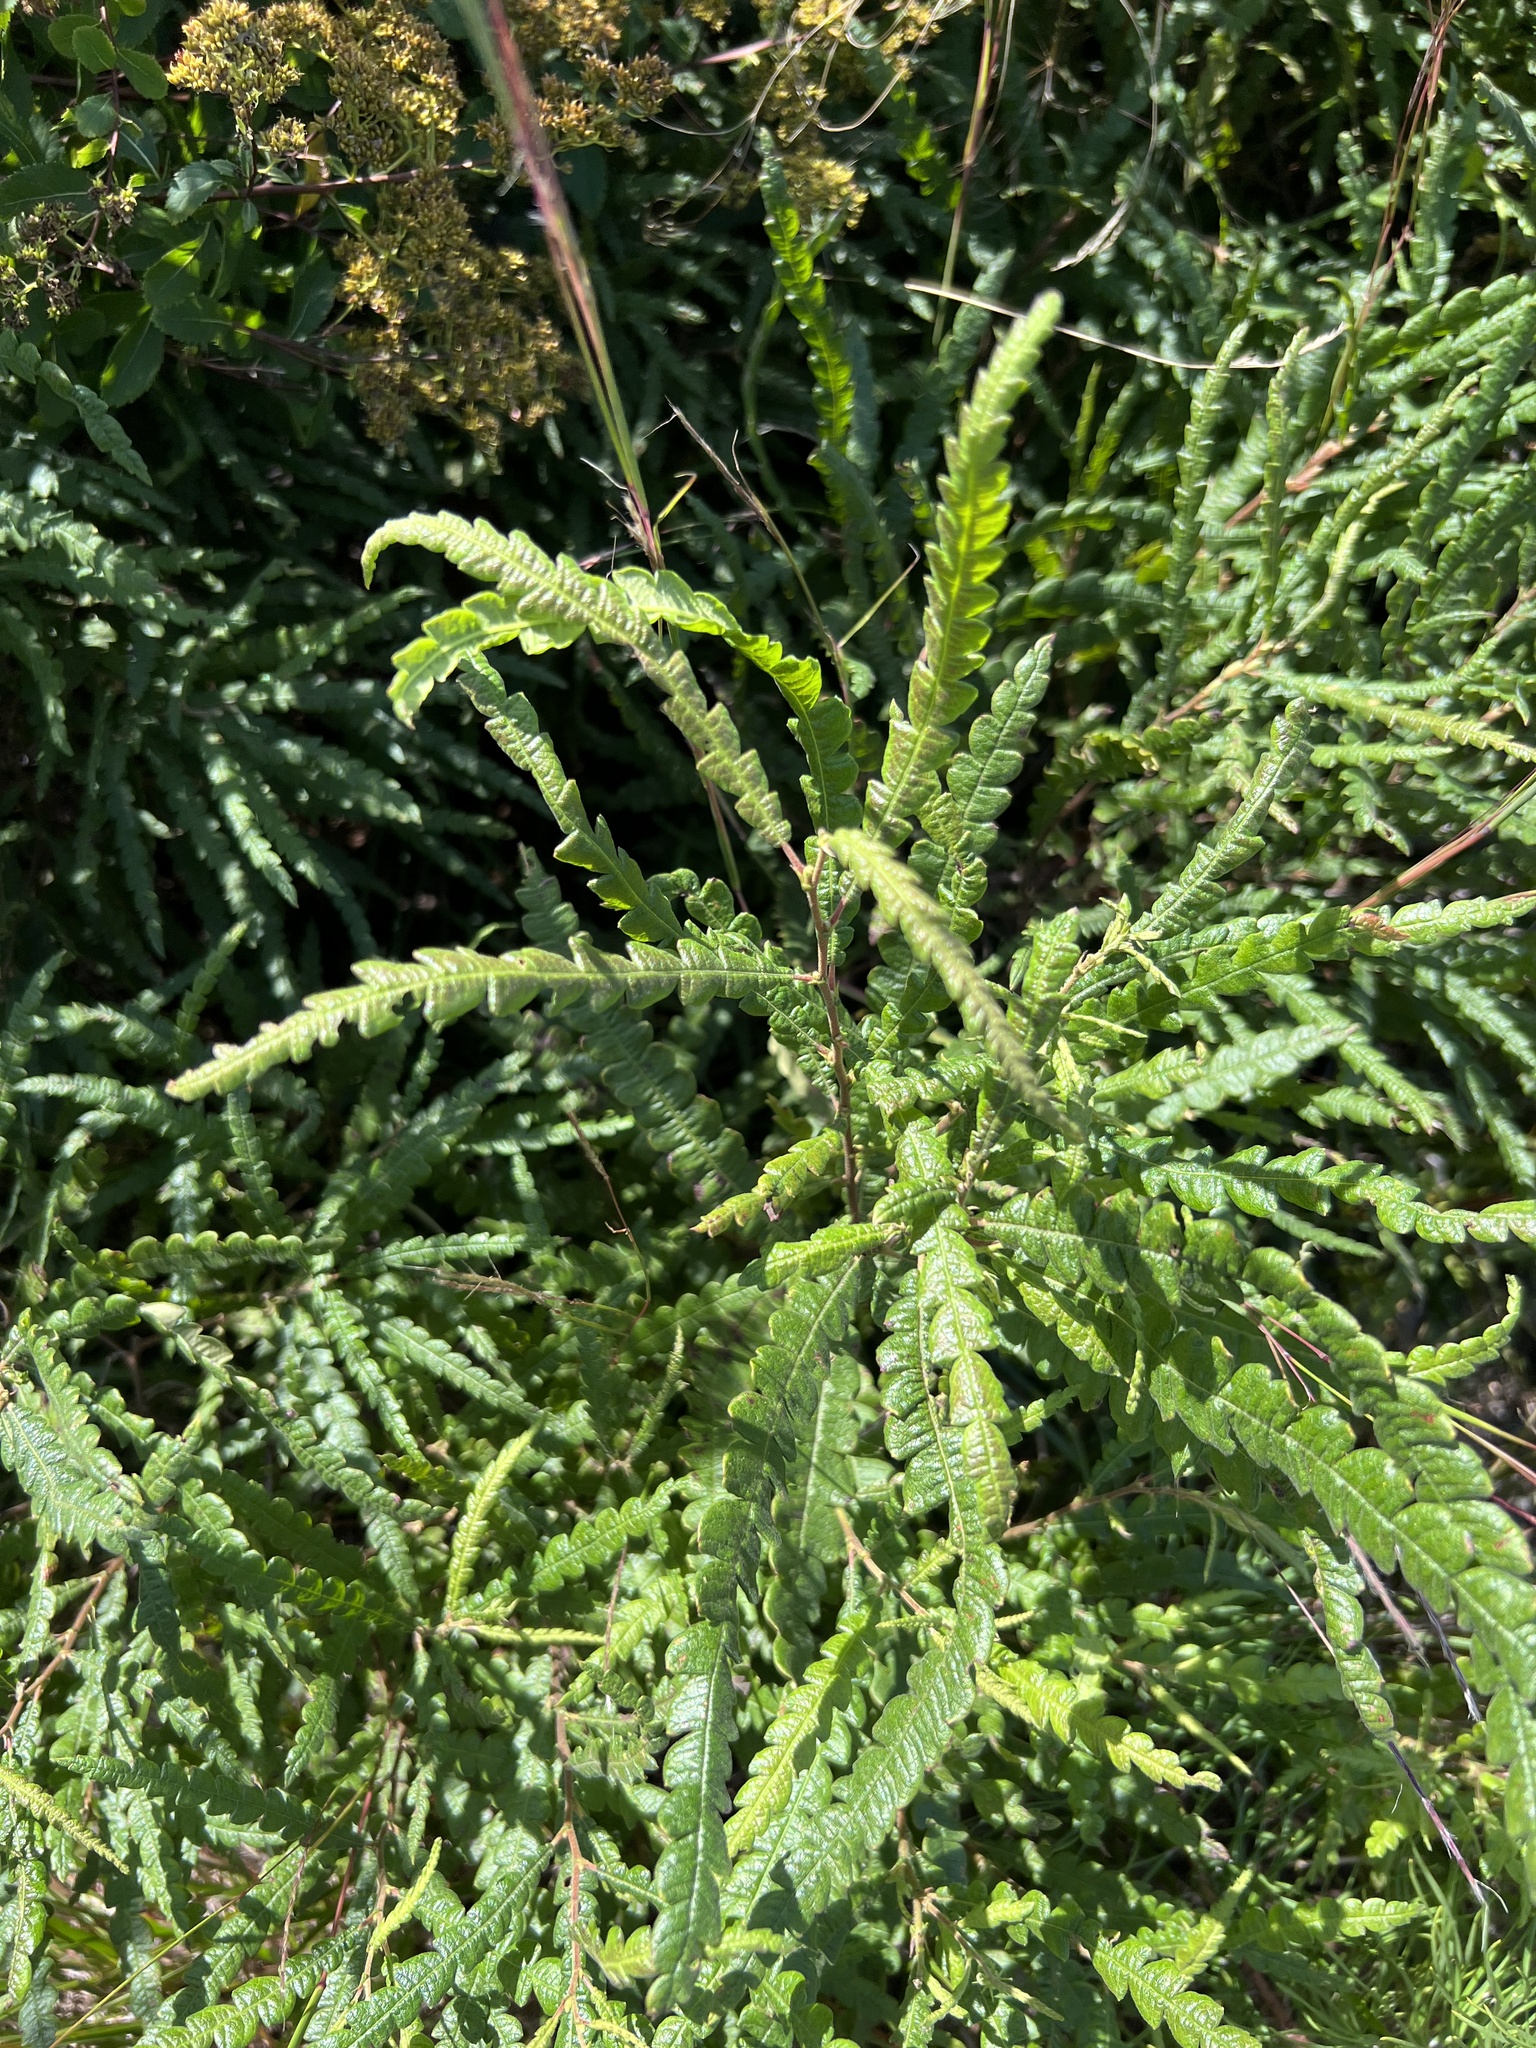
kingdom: Plantae
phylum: Tracheophyta
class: Magnoliopsida
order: Fagales
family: Myricaceae
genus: Comptonia
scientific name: Comptonia peregrina
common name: Sweet-fern
